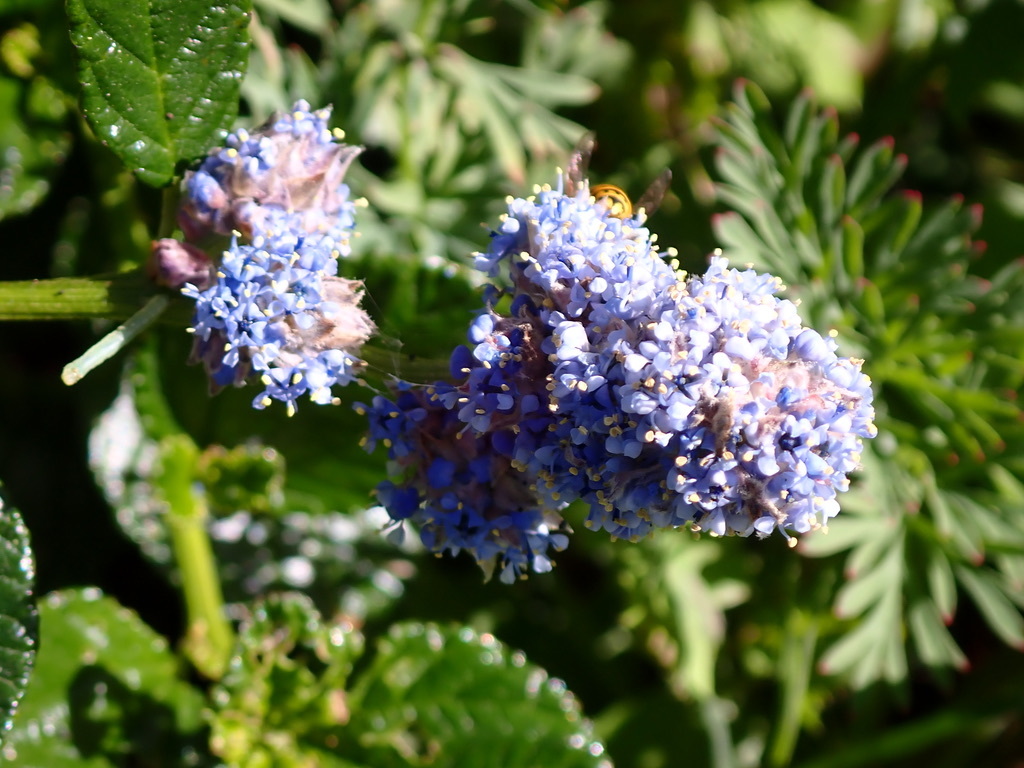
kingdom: Animalia
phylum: Arthropoda
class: Insecta
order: Hymenoptera
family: Vespidae
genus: Vespula
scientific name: Vespula pensylvanica
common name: Western yellowjacket
